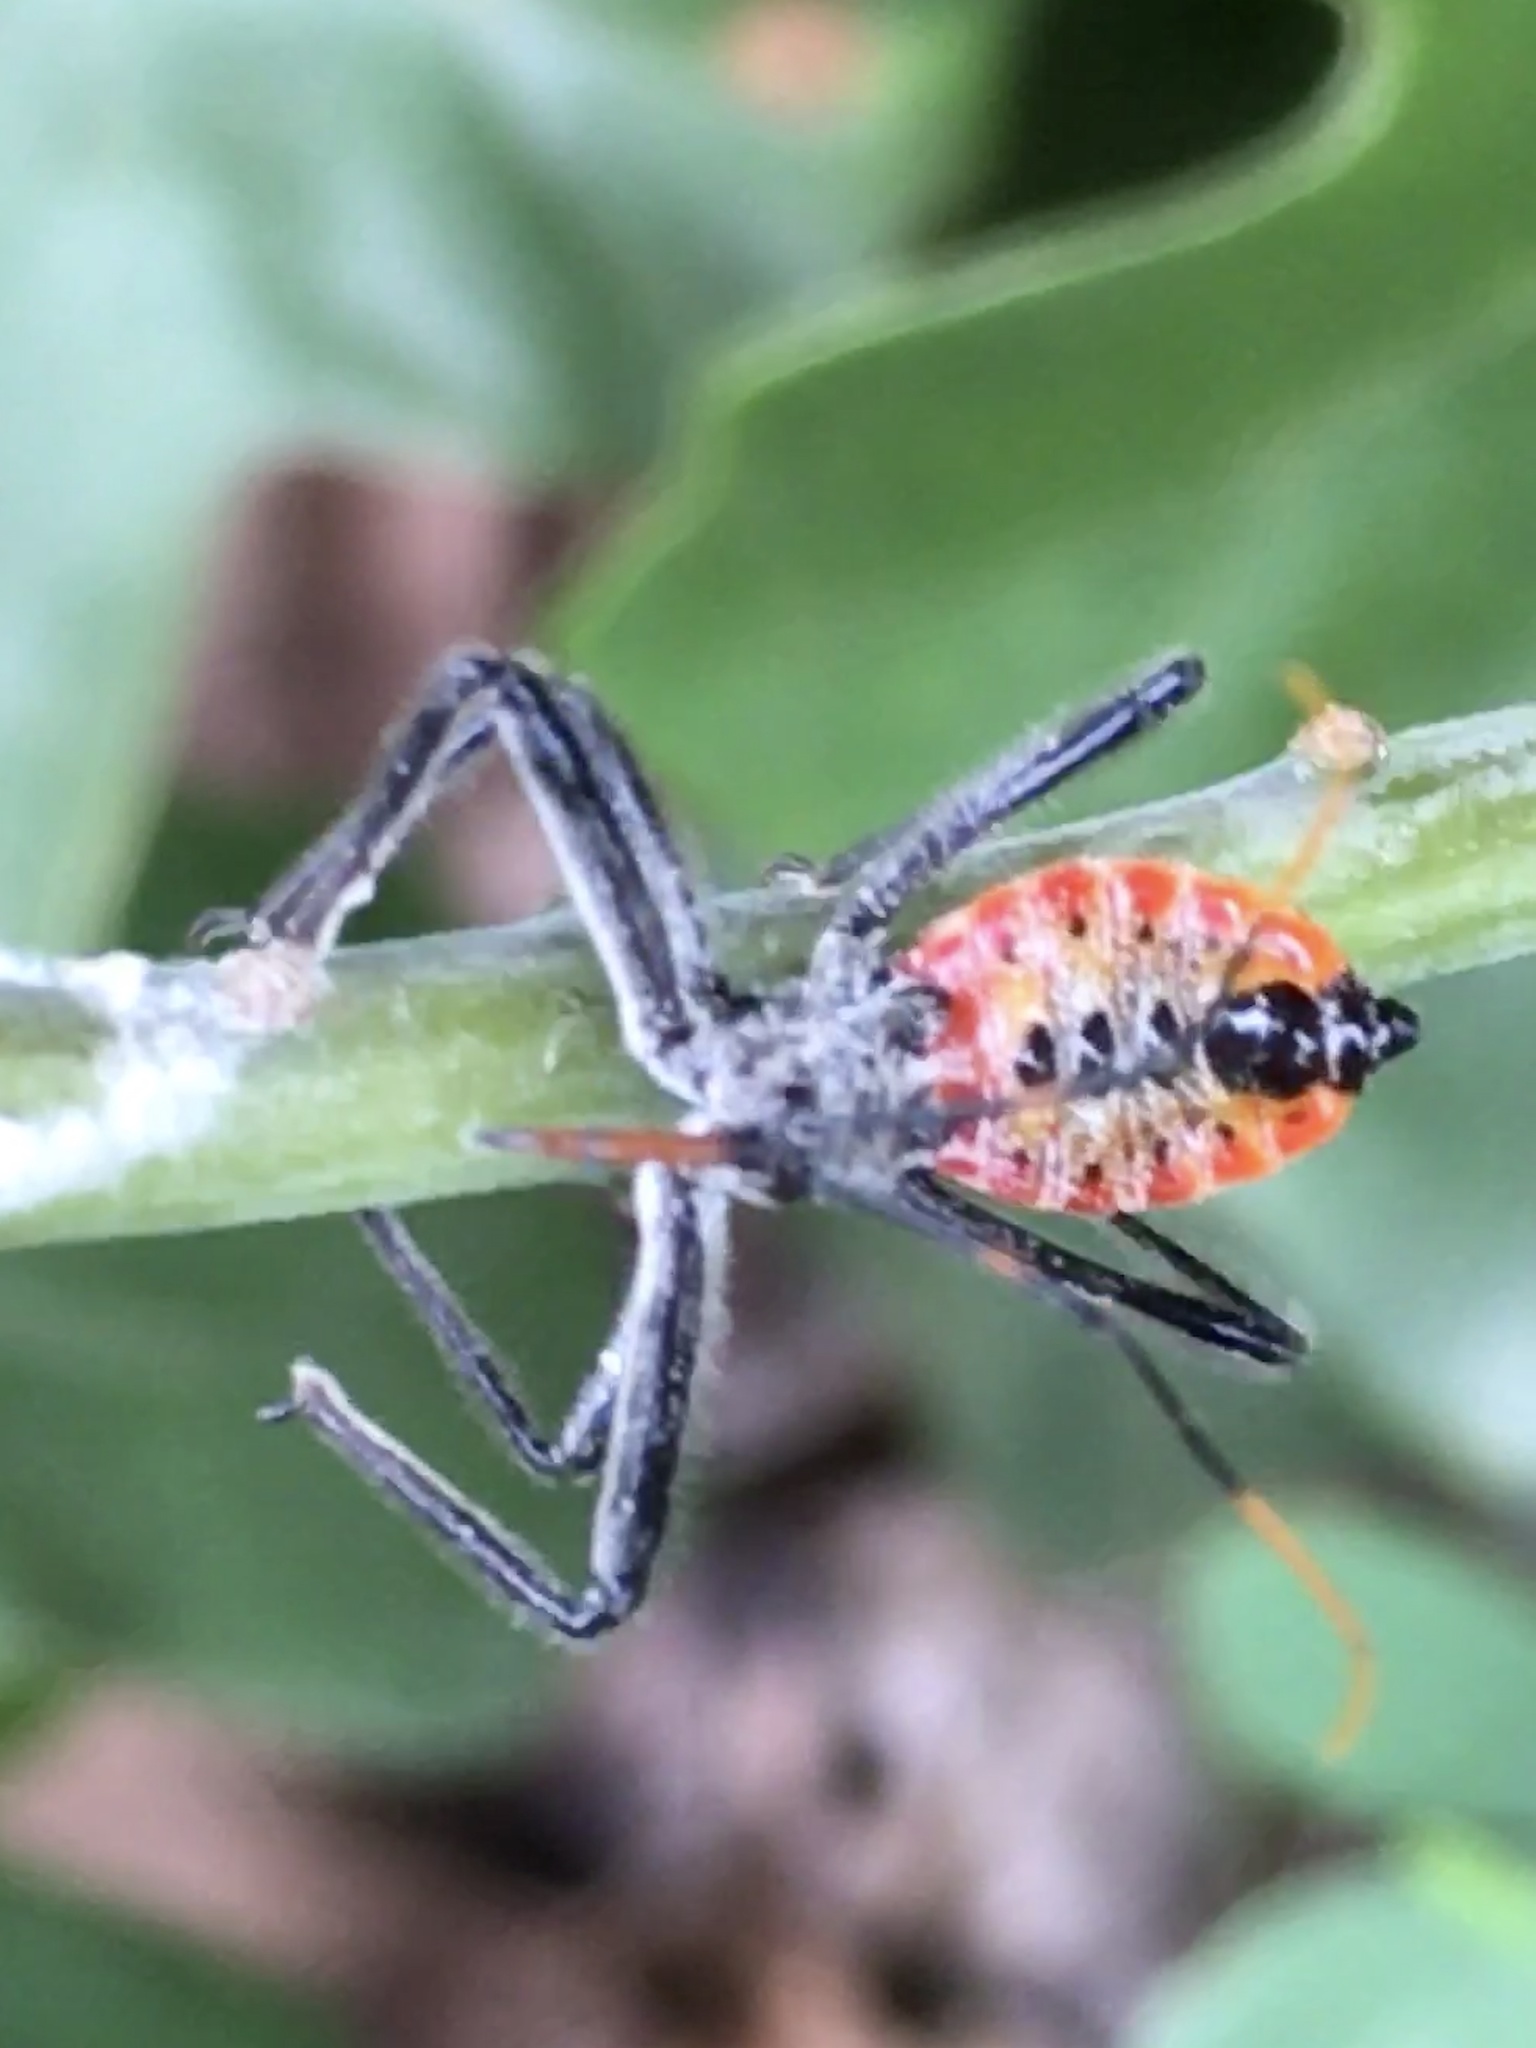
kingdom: Animalia
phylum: Arthropoda
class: Insecta
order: Hemiptera
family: Reduviidae
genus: Arilus
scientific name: Arilus cristatus
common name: North american wheel bug
